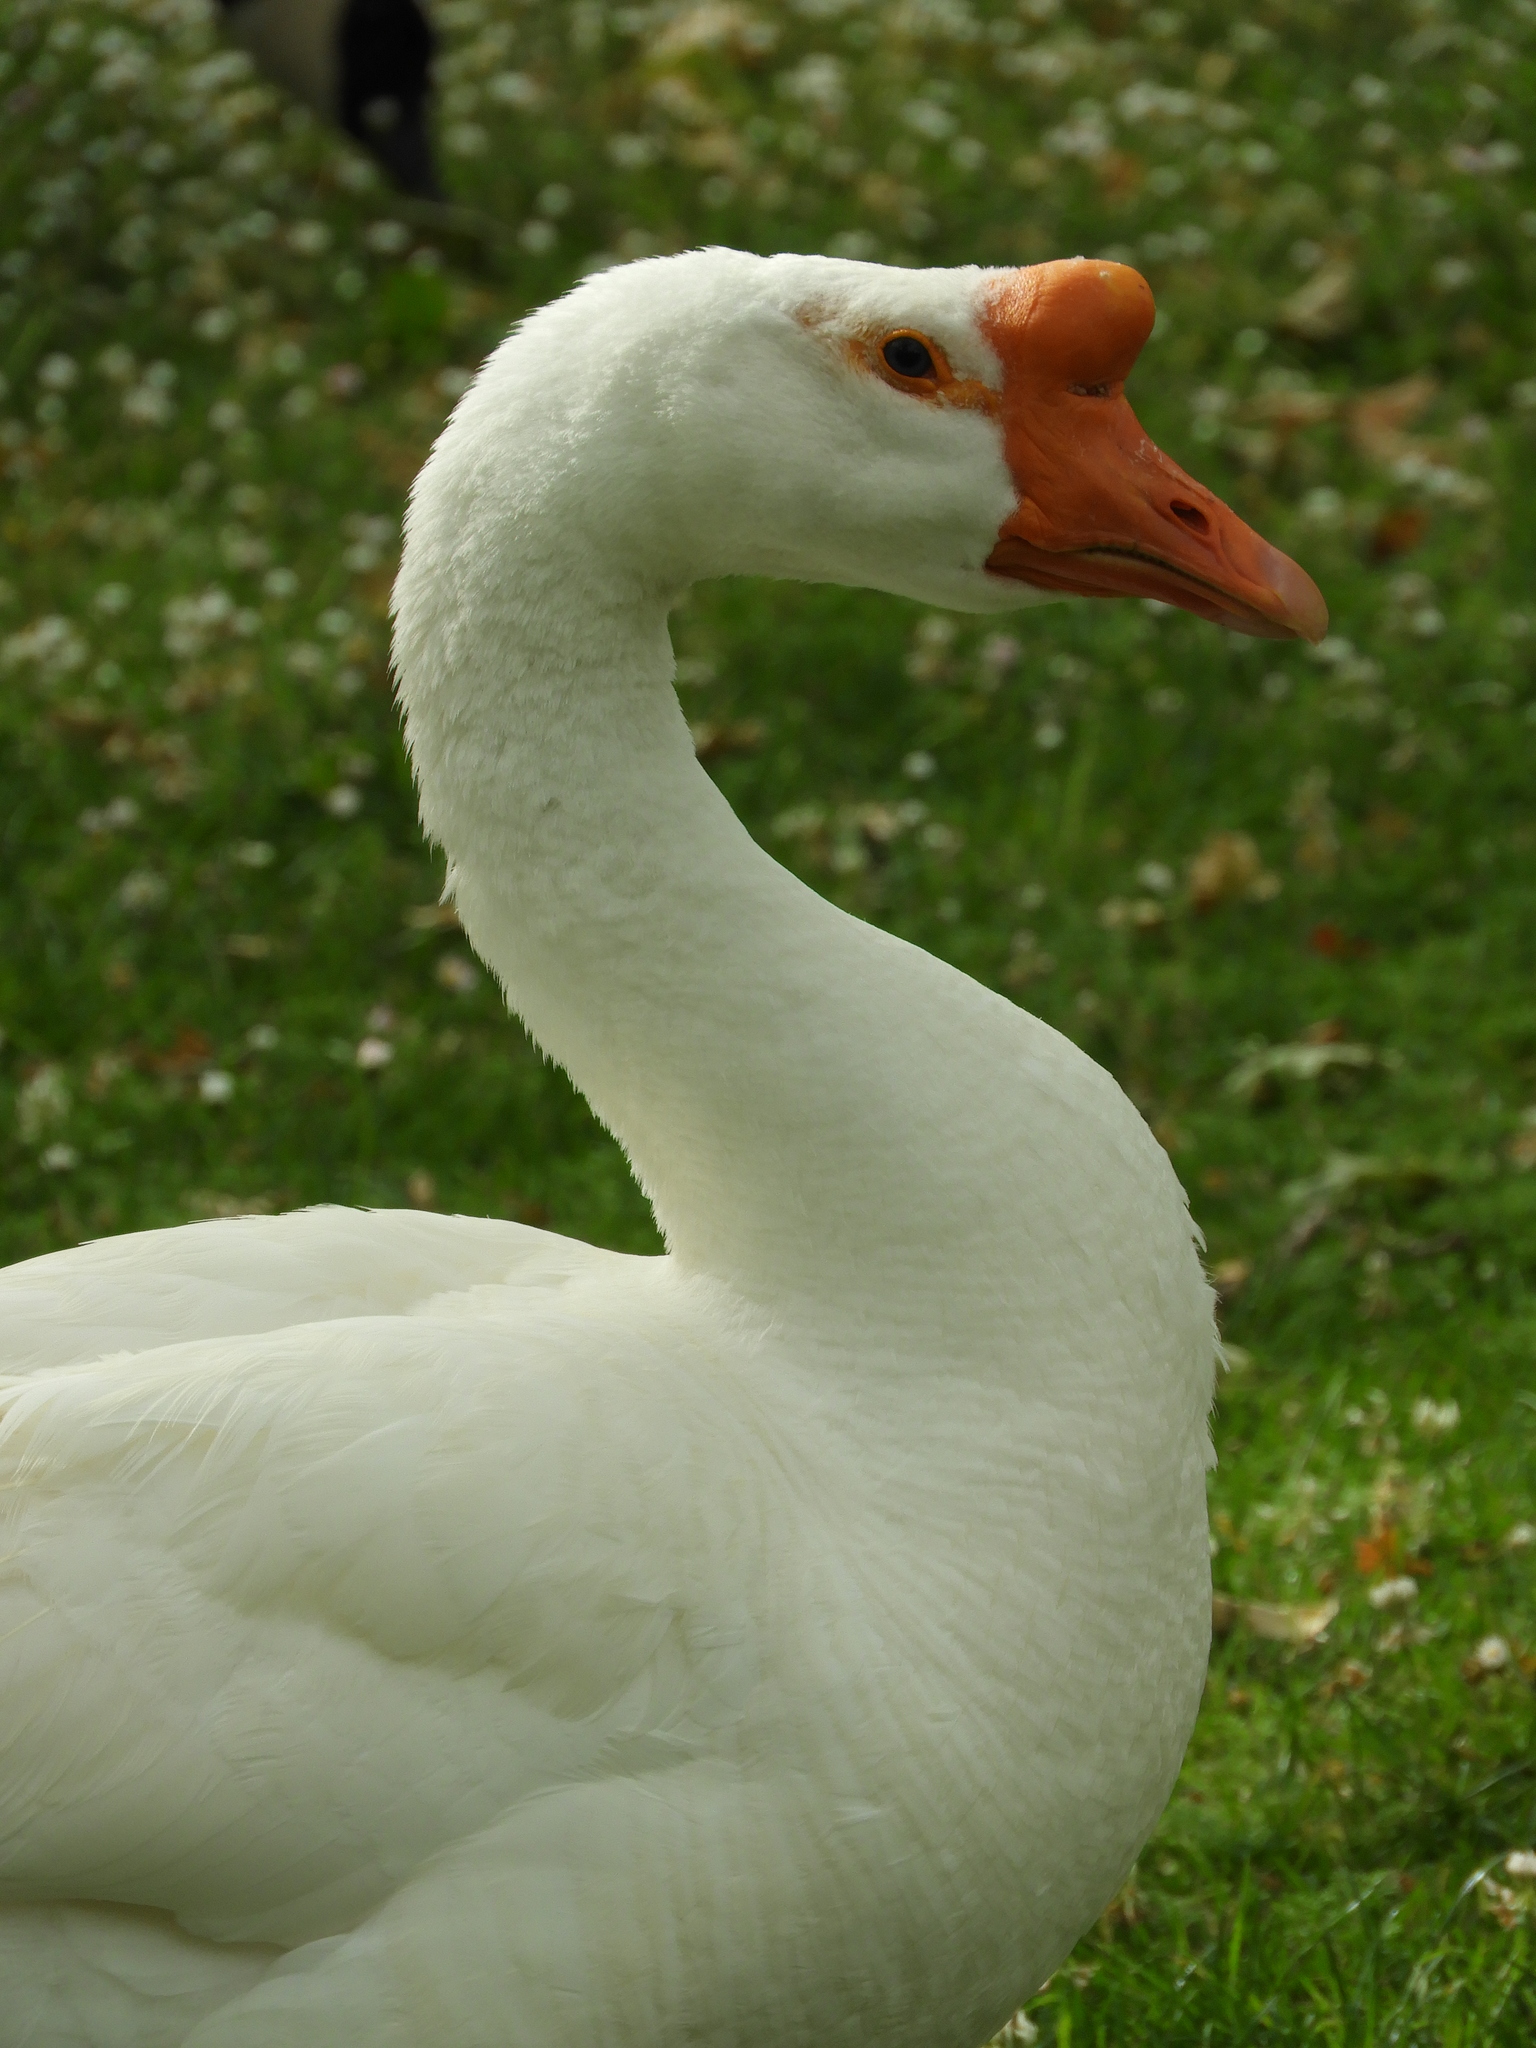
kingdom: Animalia
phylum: Chordata
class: Aves
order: Anseriformes
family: Anatidae
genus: Anser
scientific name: Anser cygnoides
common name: Swan goose
